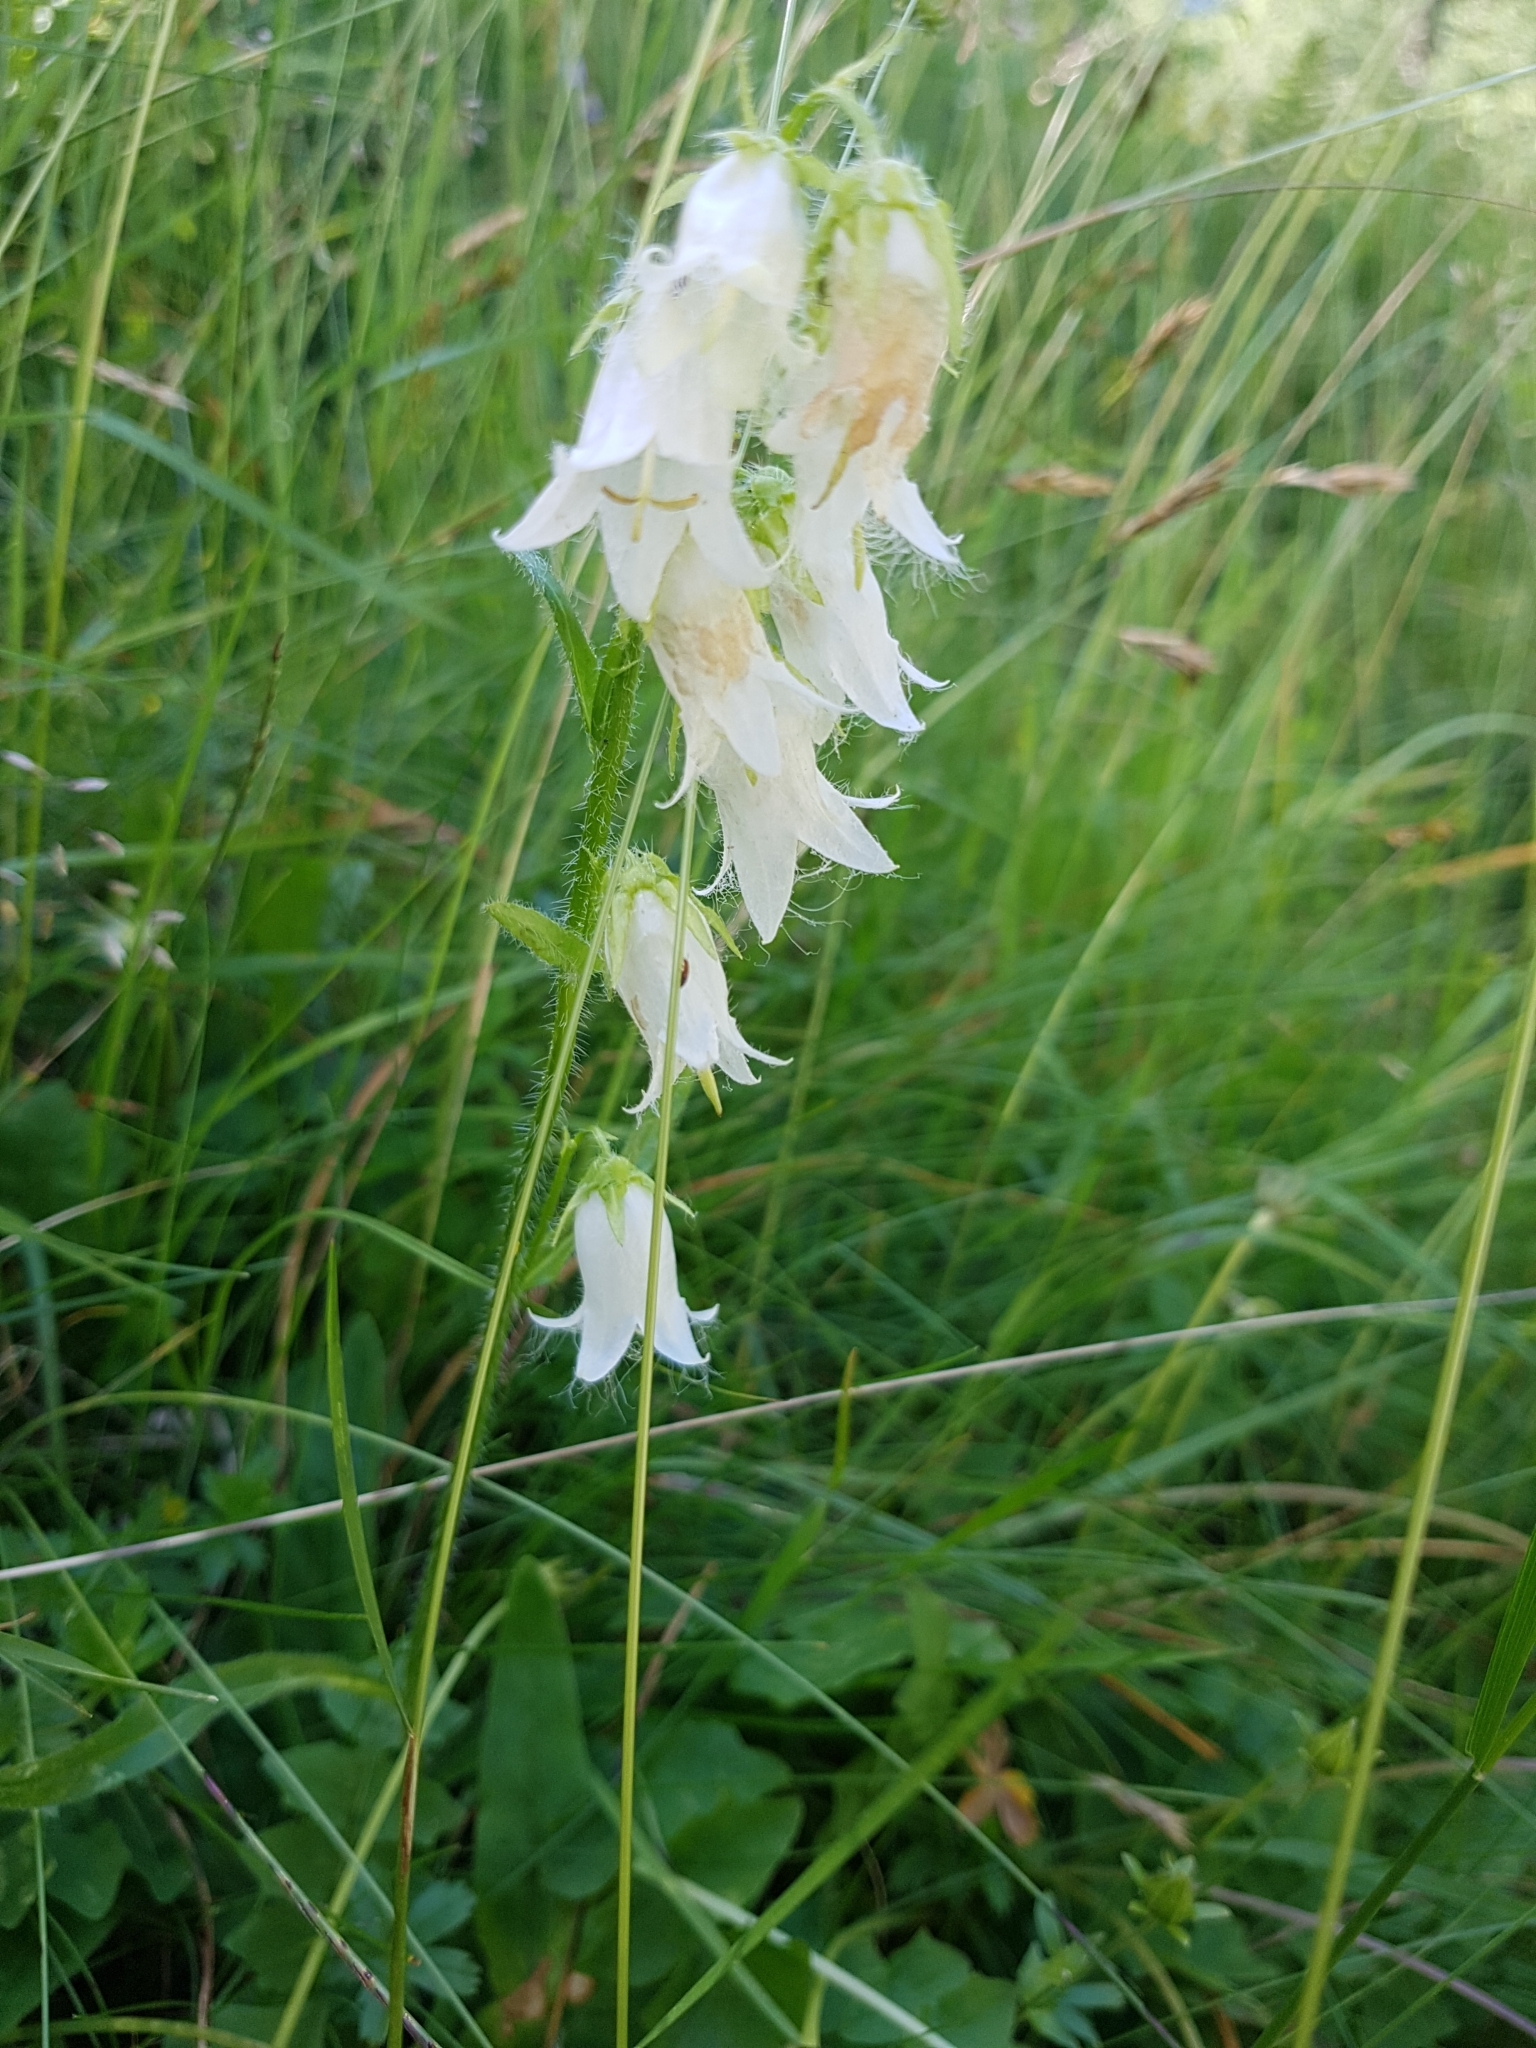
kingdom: Plantae
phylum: Tracheophyta
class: Magnoliopsida
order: Asterales
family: Campanulaceae
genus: Campanula
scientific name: Campanula barbata
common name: Bearded bellflower
